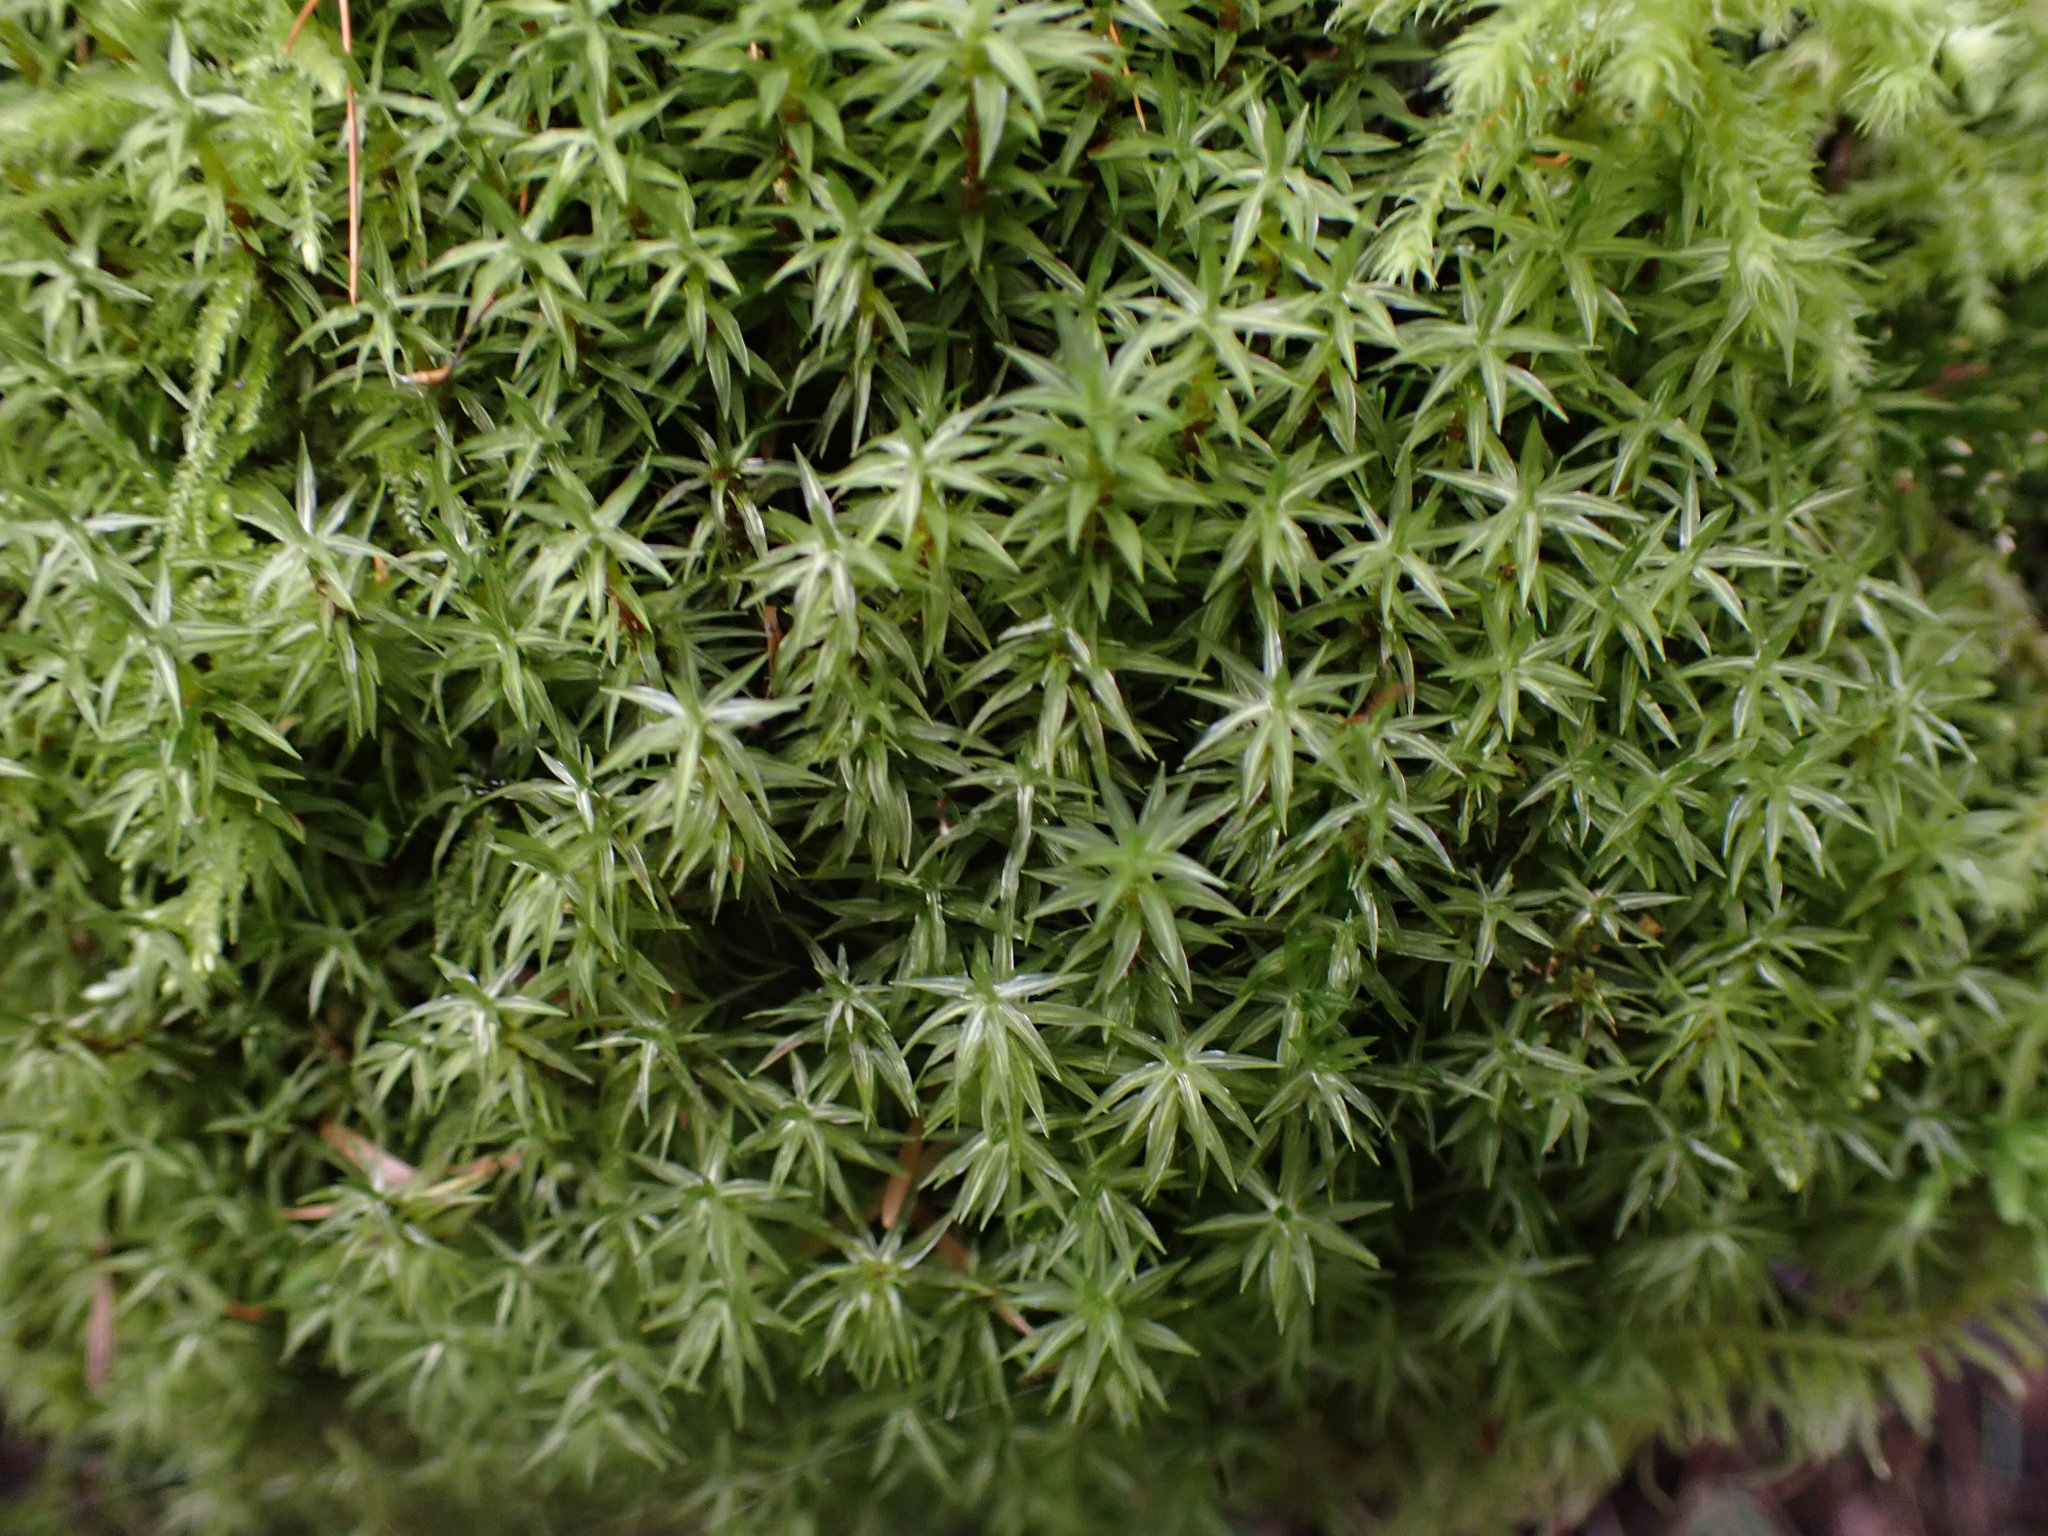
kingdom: Plantae
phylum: Bryophyta
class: Bryopsida
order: Timmiales
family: Timmiaceae
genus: Timmia
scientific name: Timmia austriaca
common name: Austrian timmia
